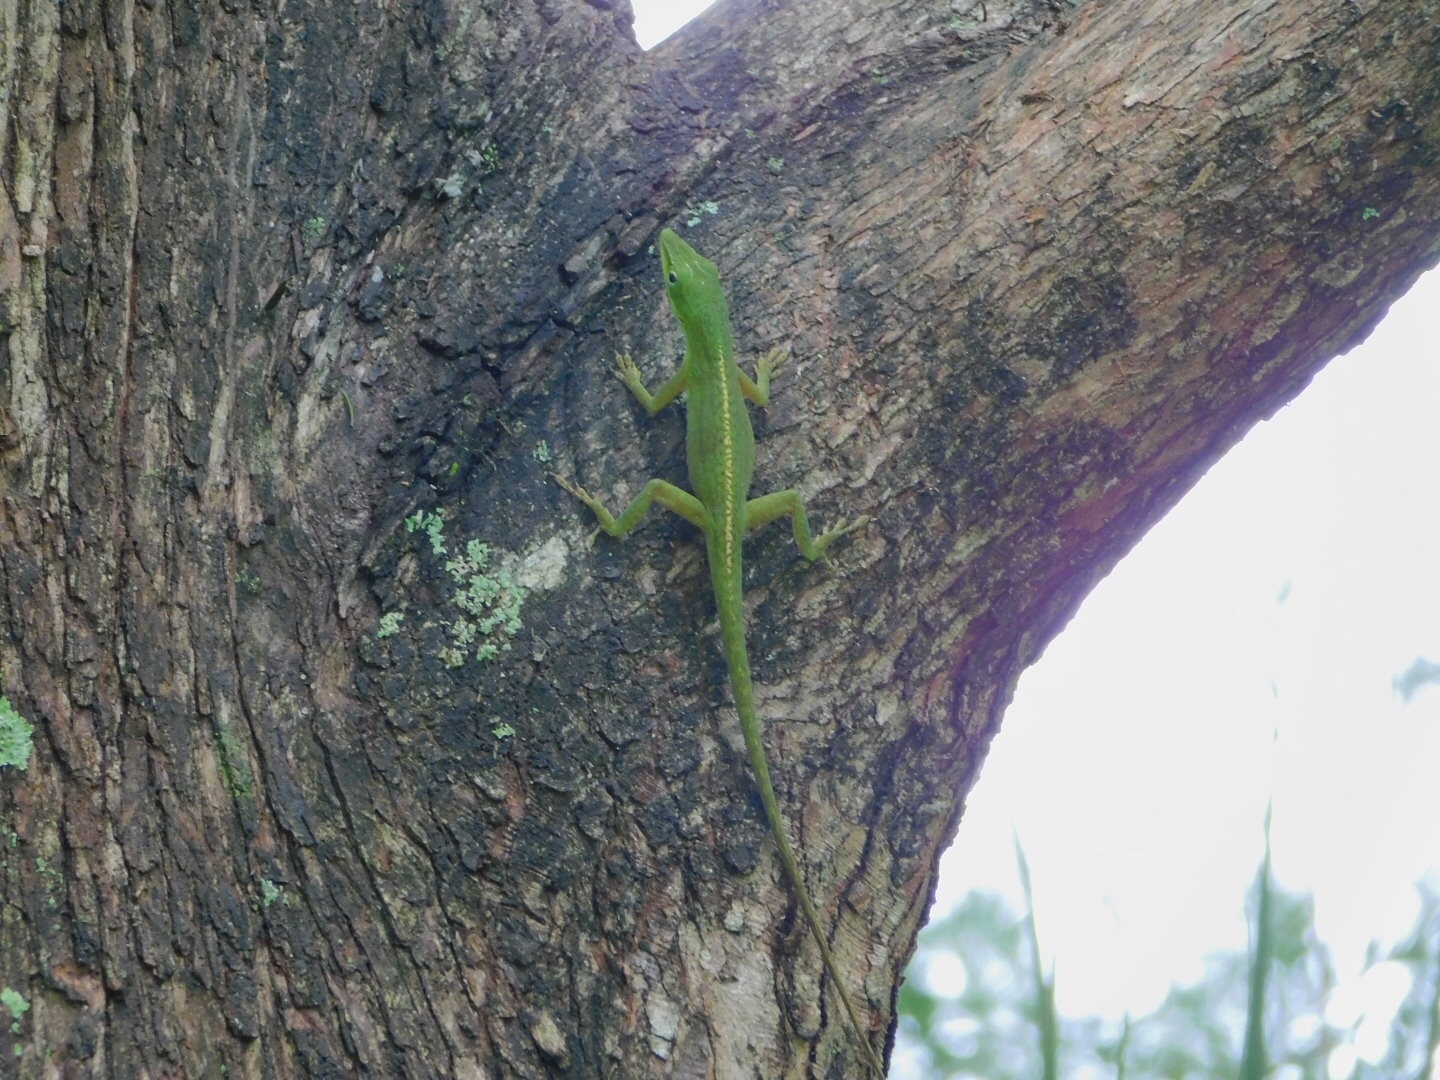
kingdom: Animalia
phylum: Chordata
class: Squamata
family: Dactyloidae
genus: Anolis
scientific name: Anolis carolinensis
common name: Green anole
